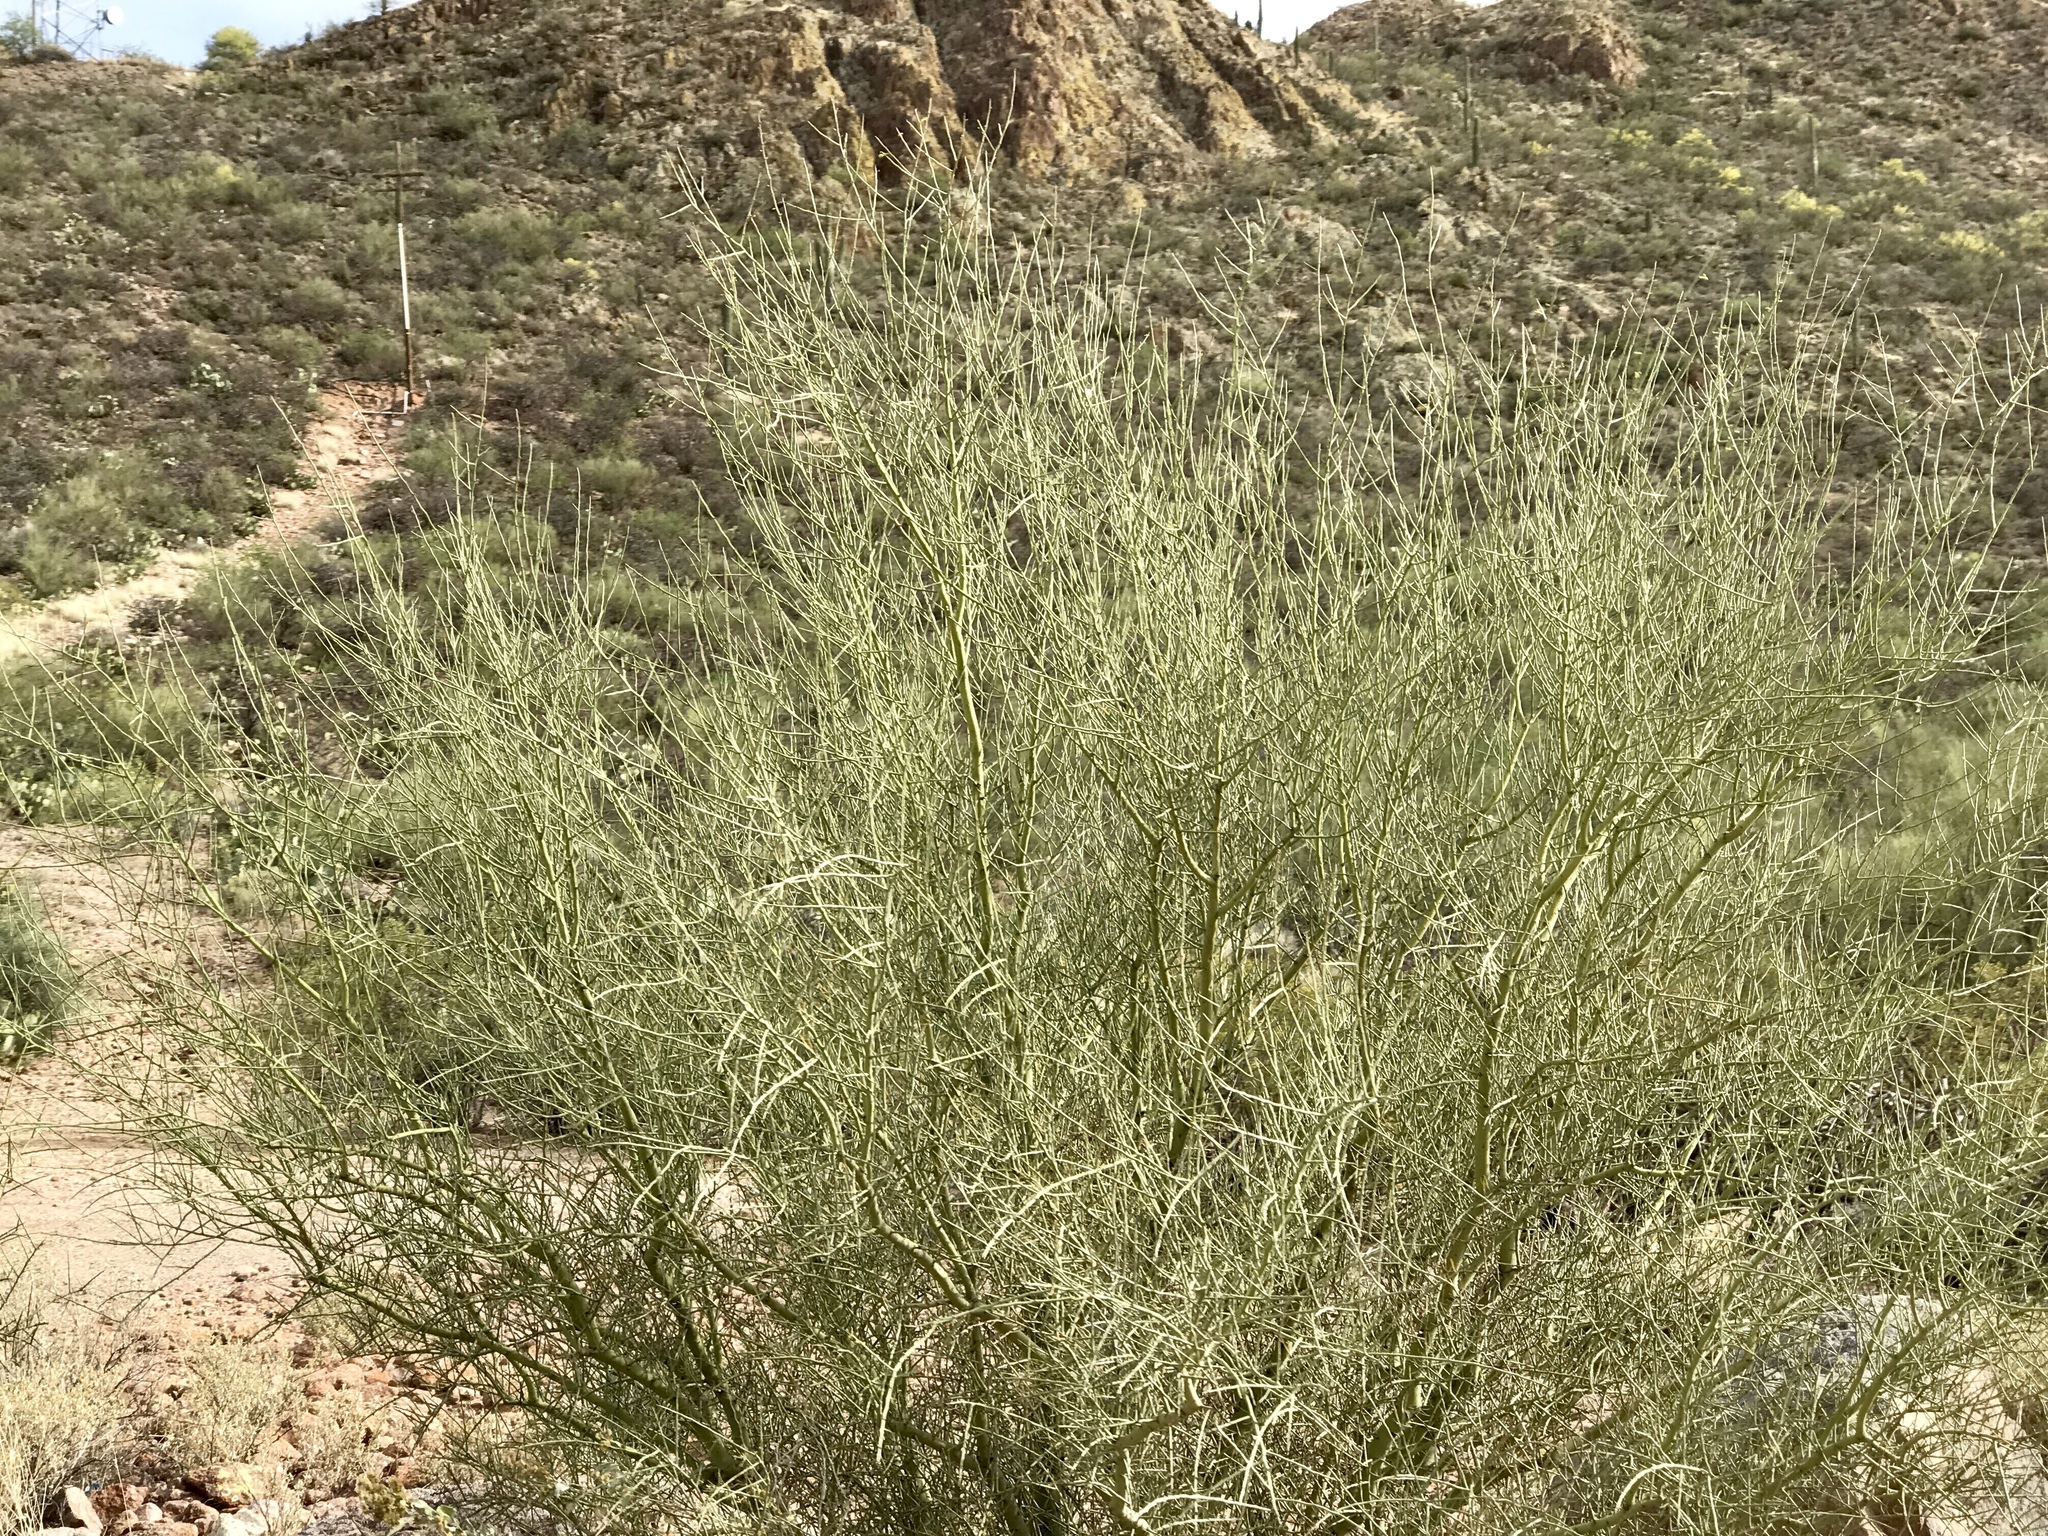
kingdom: Plantae
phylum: Tracheophyta
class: Magnoliopsida
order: Fabales
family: Fabaceae
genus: Parkinsonia
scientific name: Parkinsonia microphylla
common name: Yellow paloverde
